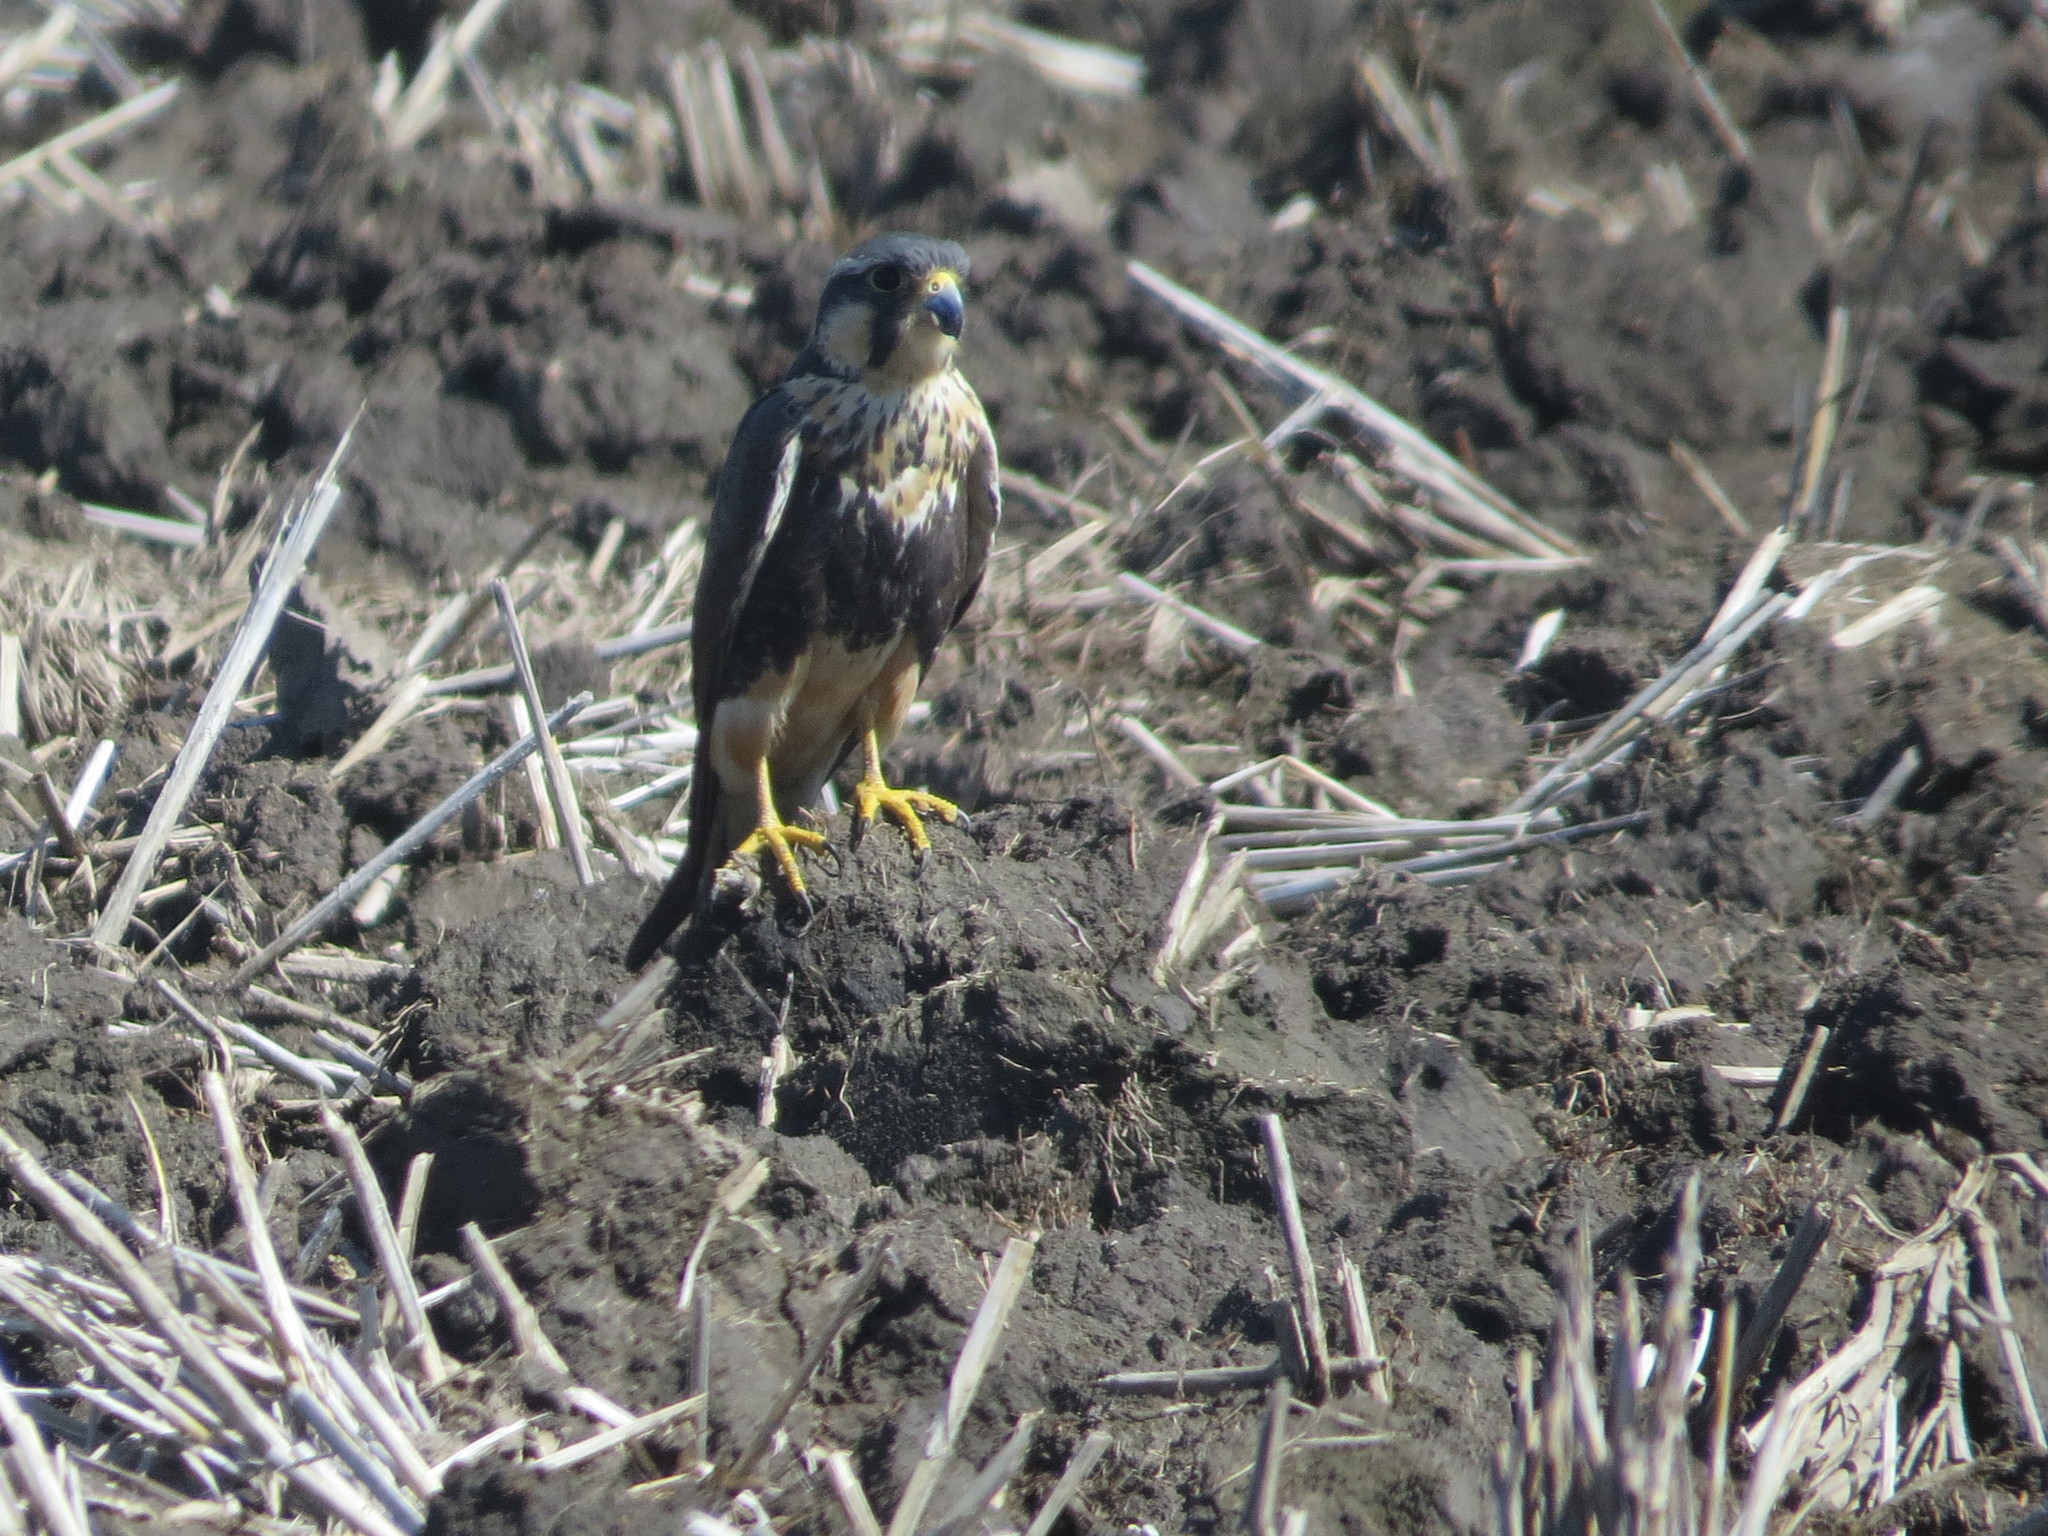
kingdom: Animalia
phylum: Chordata
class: Aves
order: Falconiformes
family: Falconidae
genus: Falco
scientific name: Falco femoralis
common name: Aplomado falcon
